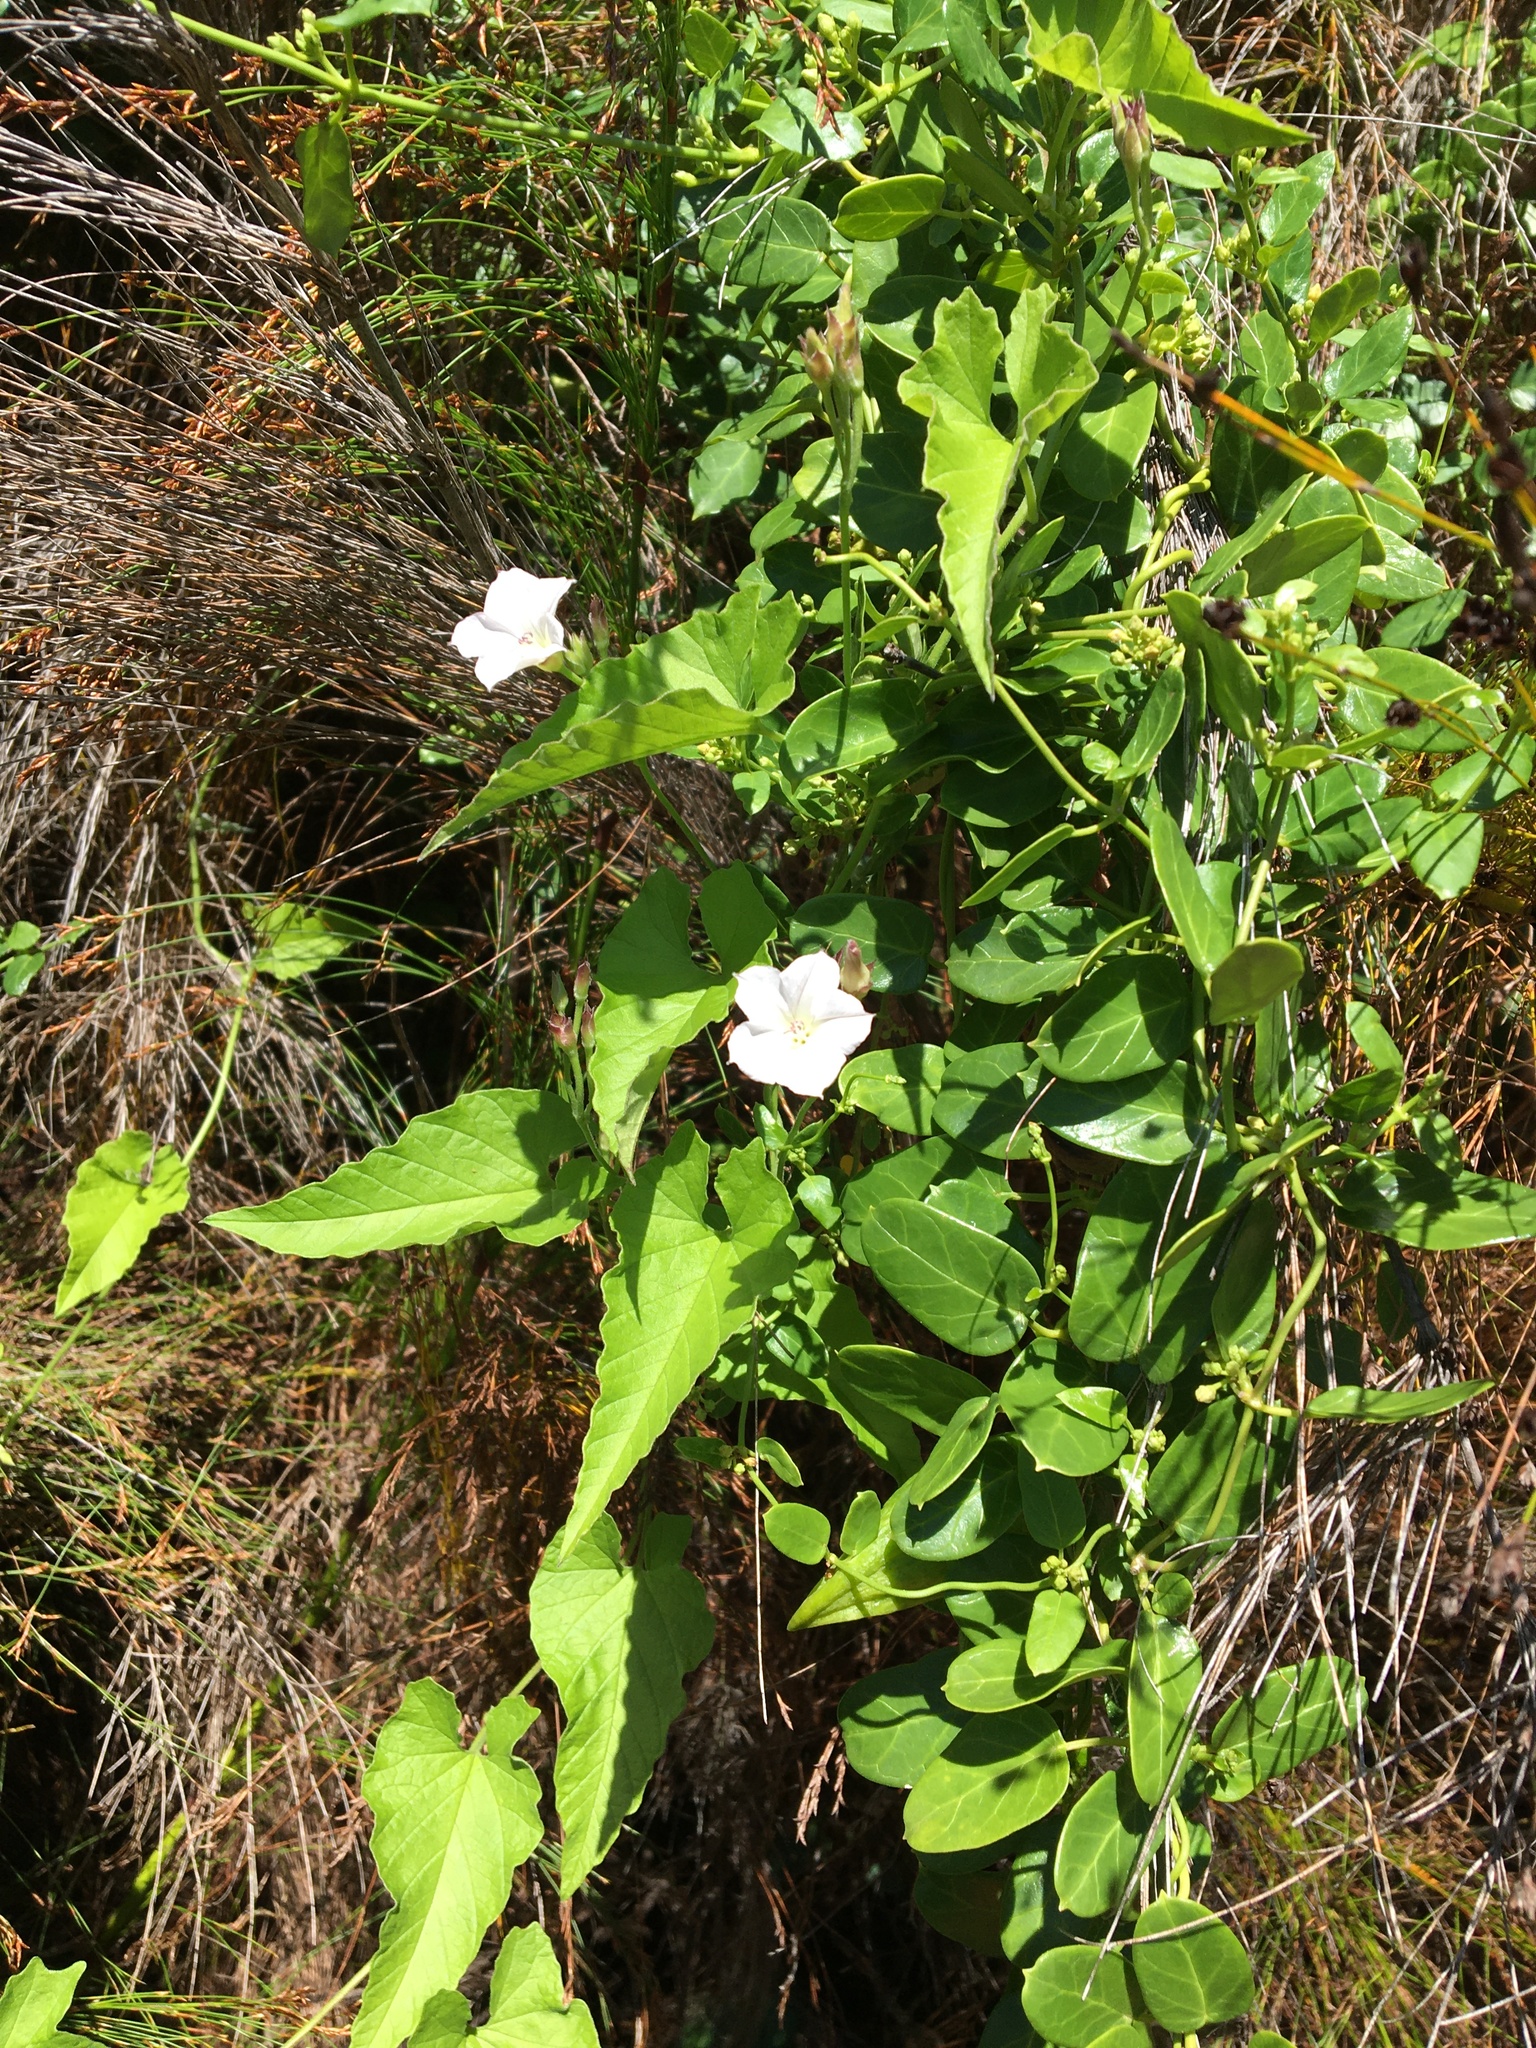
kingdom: Plantae
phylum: Tracheophyta
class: Magnoliopsida
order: Solanales
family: Convolvulaceae
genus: Convolvulus
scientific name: Convolvulus farinosus
